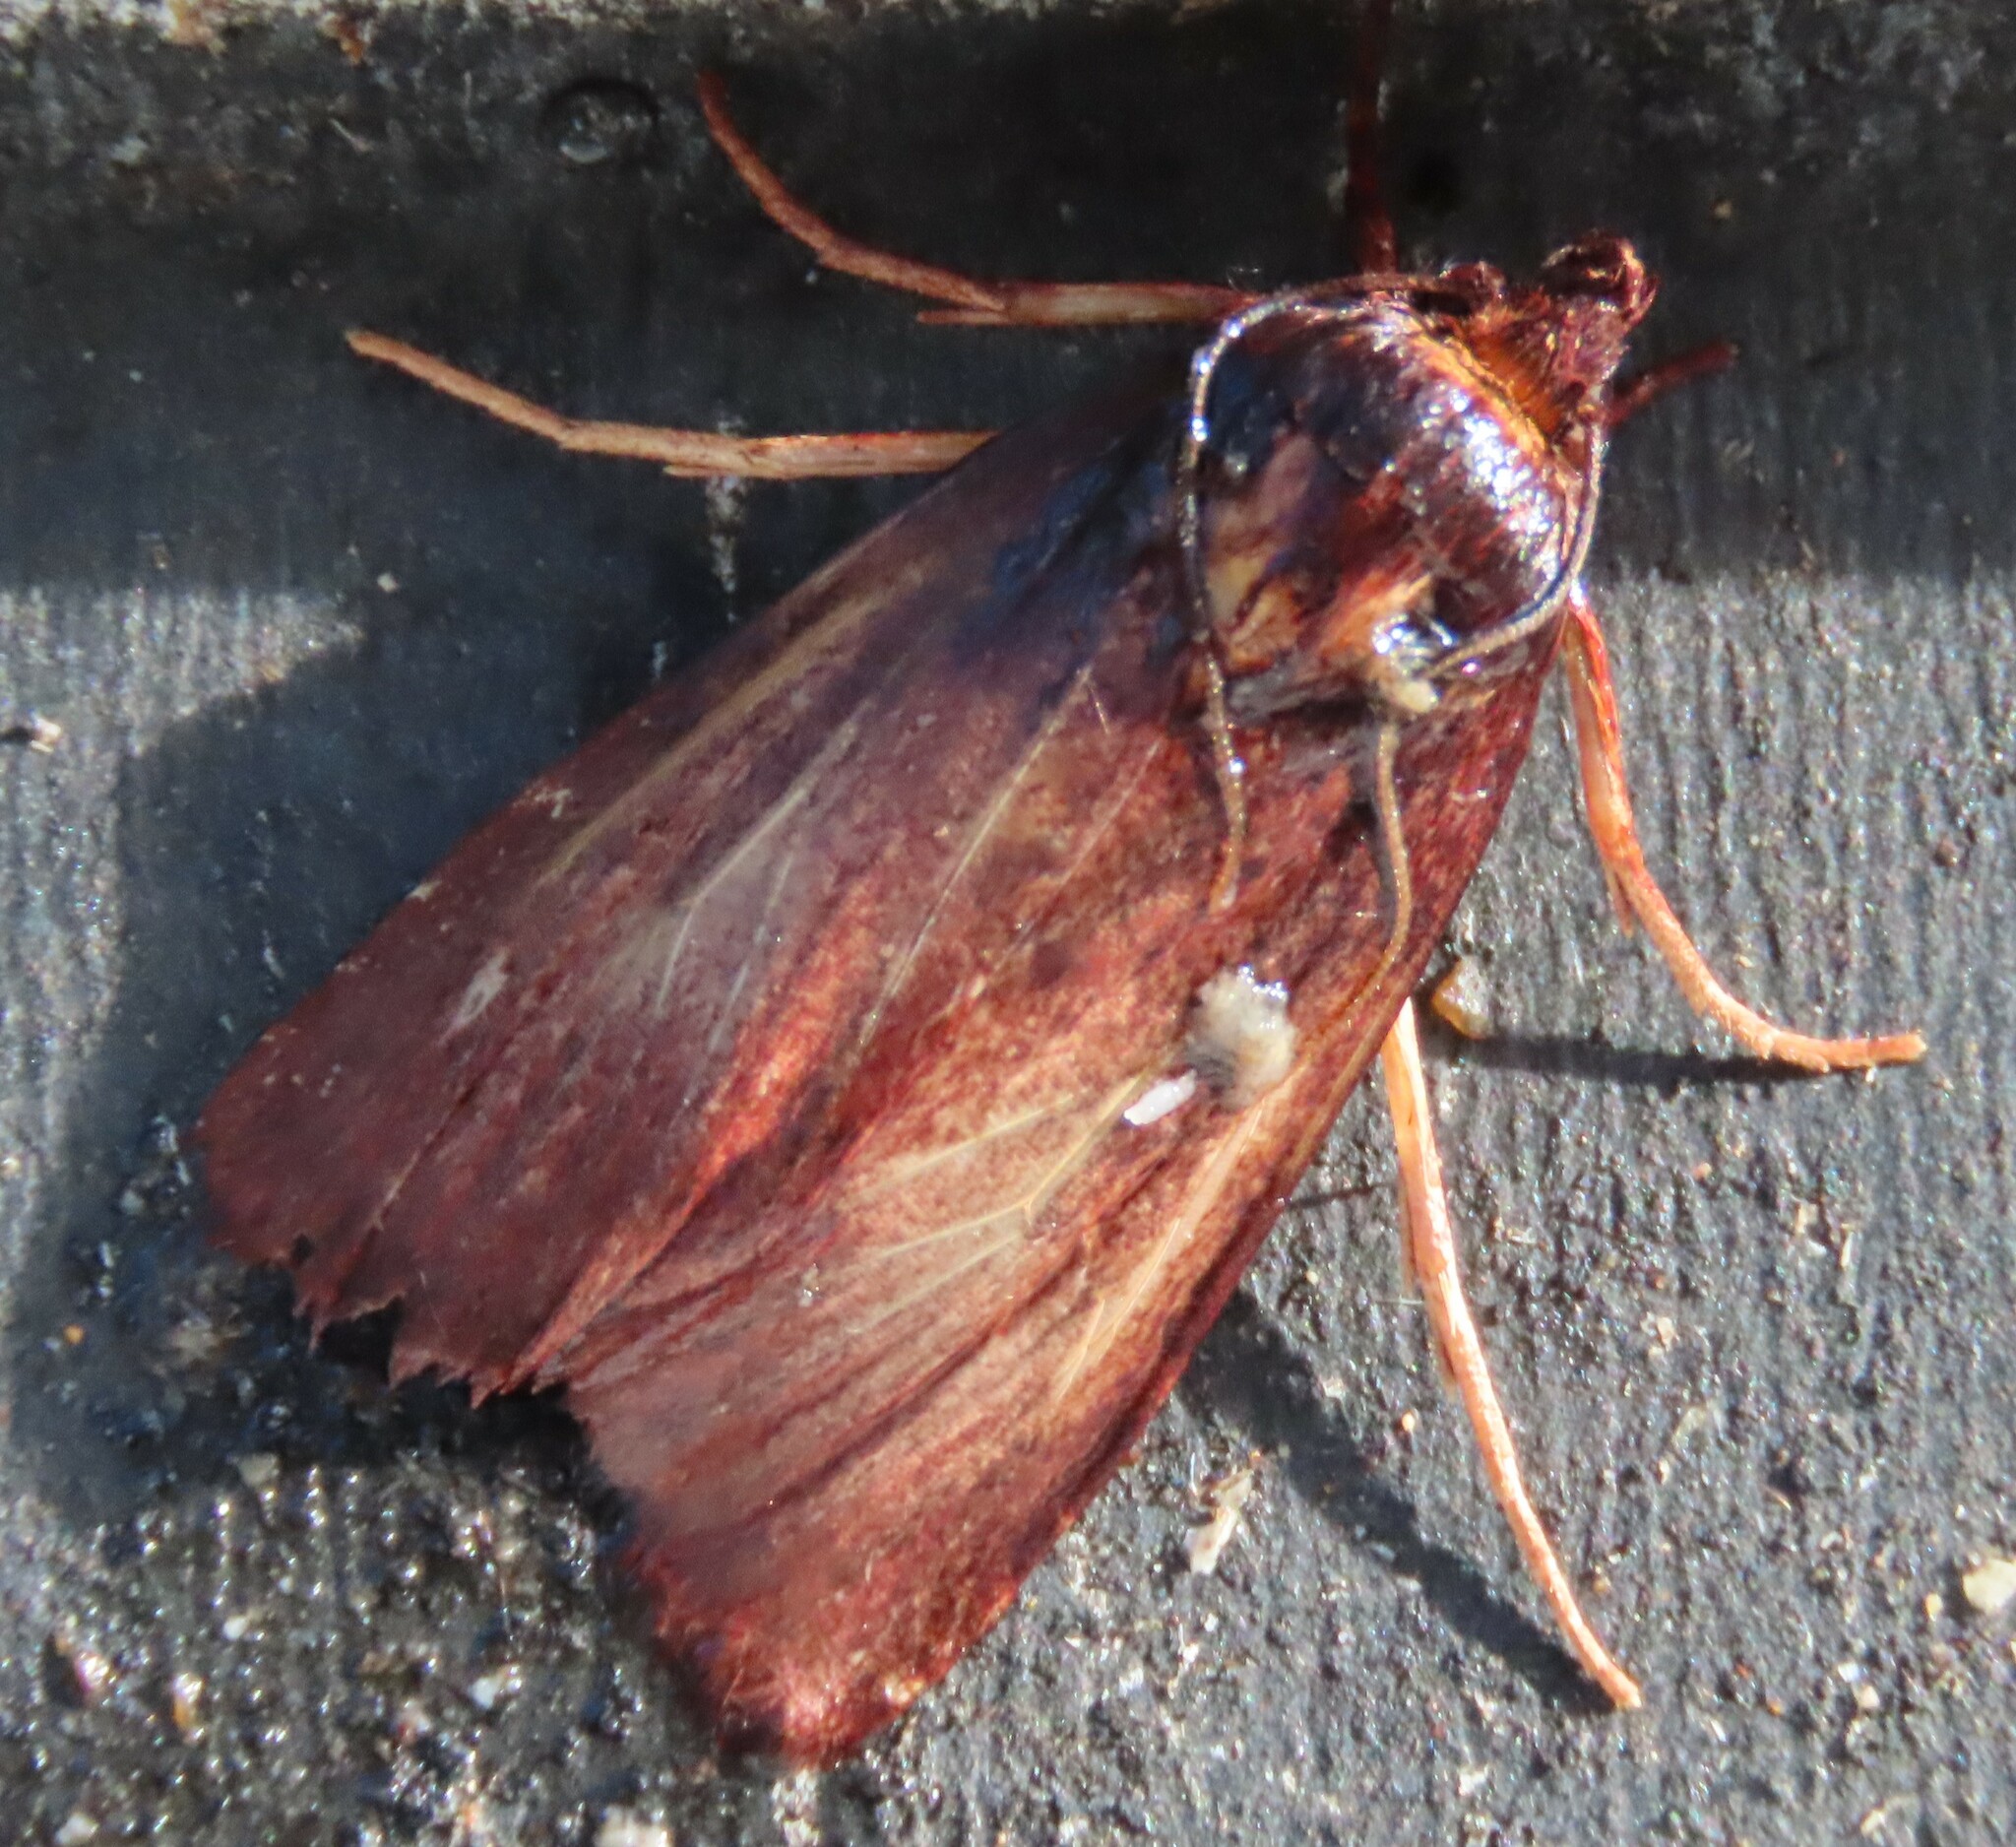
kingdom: Animalia
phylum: Arthropoda
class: Insecta
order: Lepidoptera
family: Noctuidae
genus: Austramathes
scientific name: Austramathes purpurea
